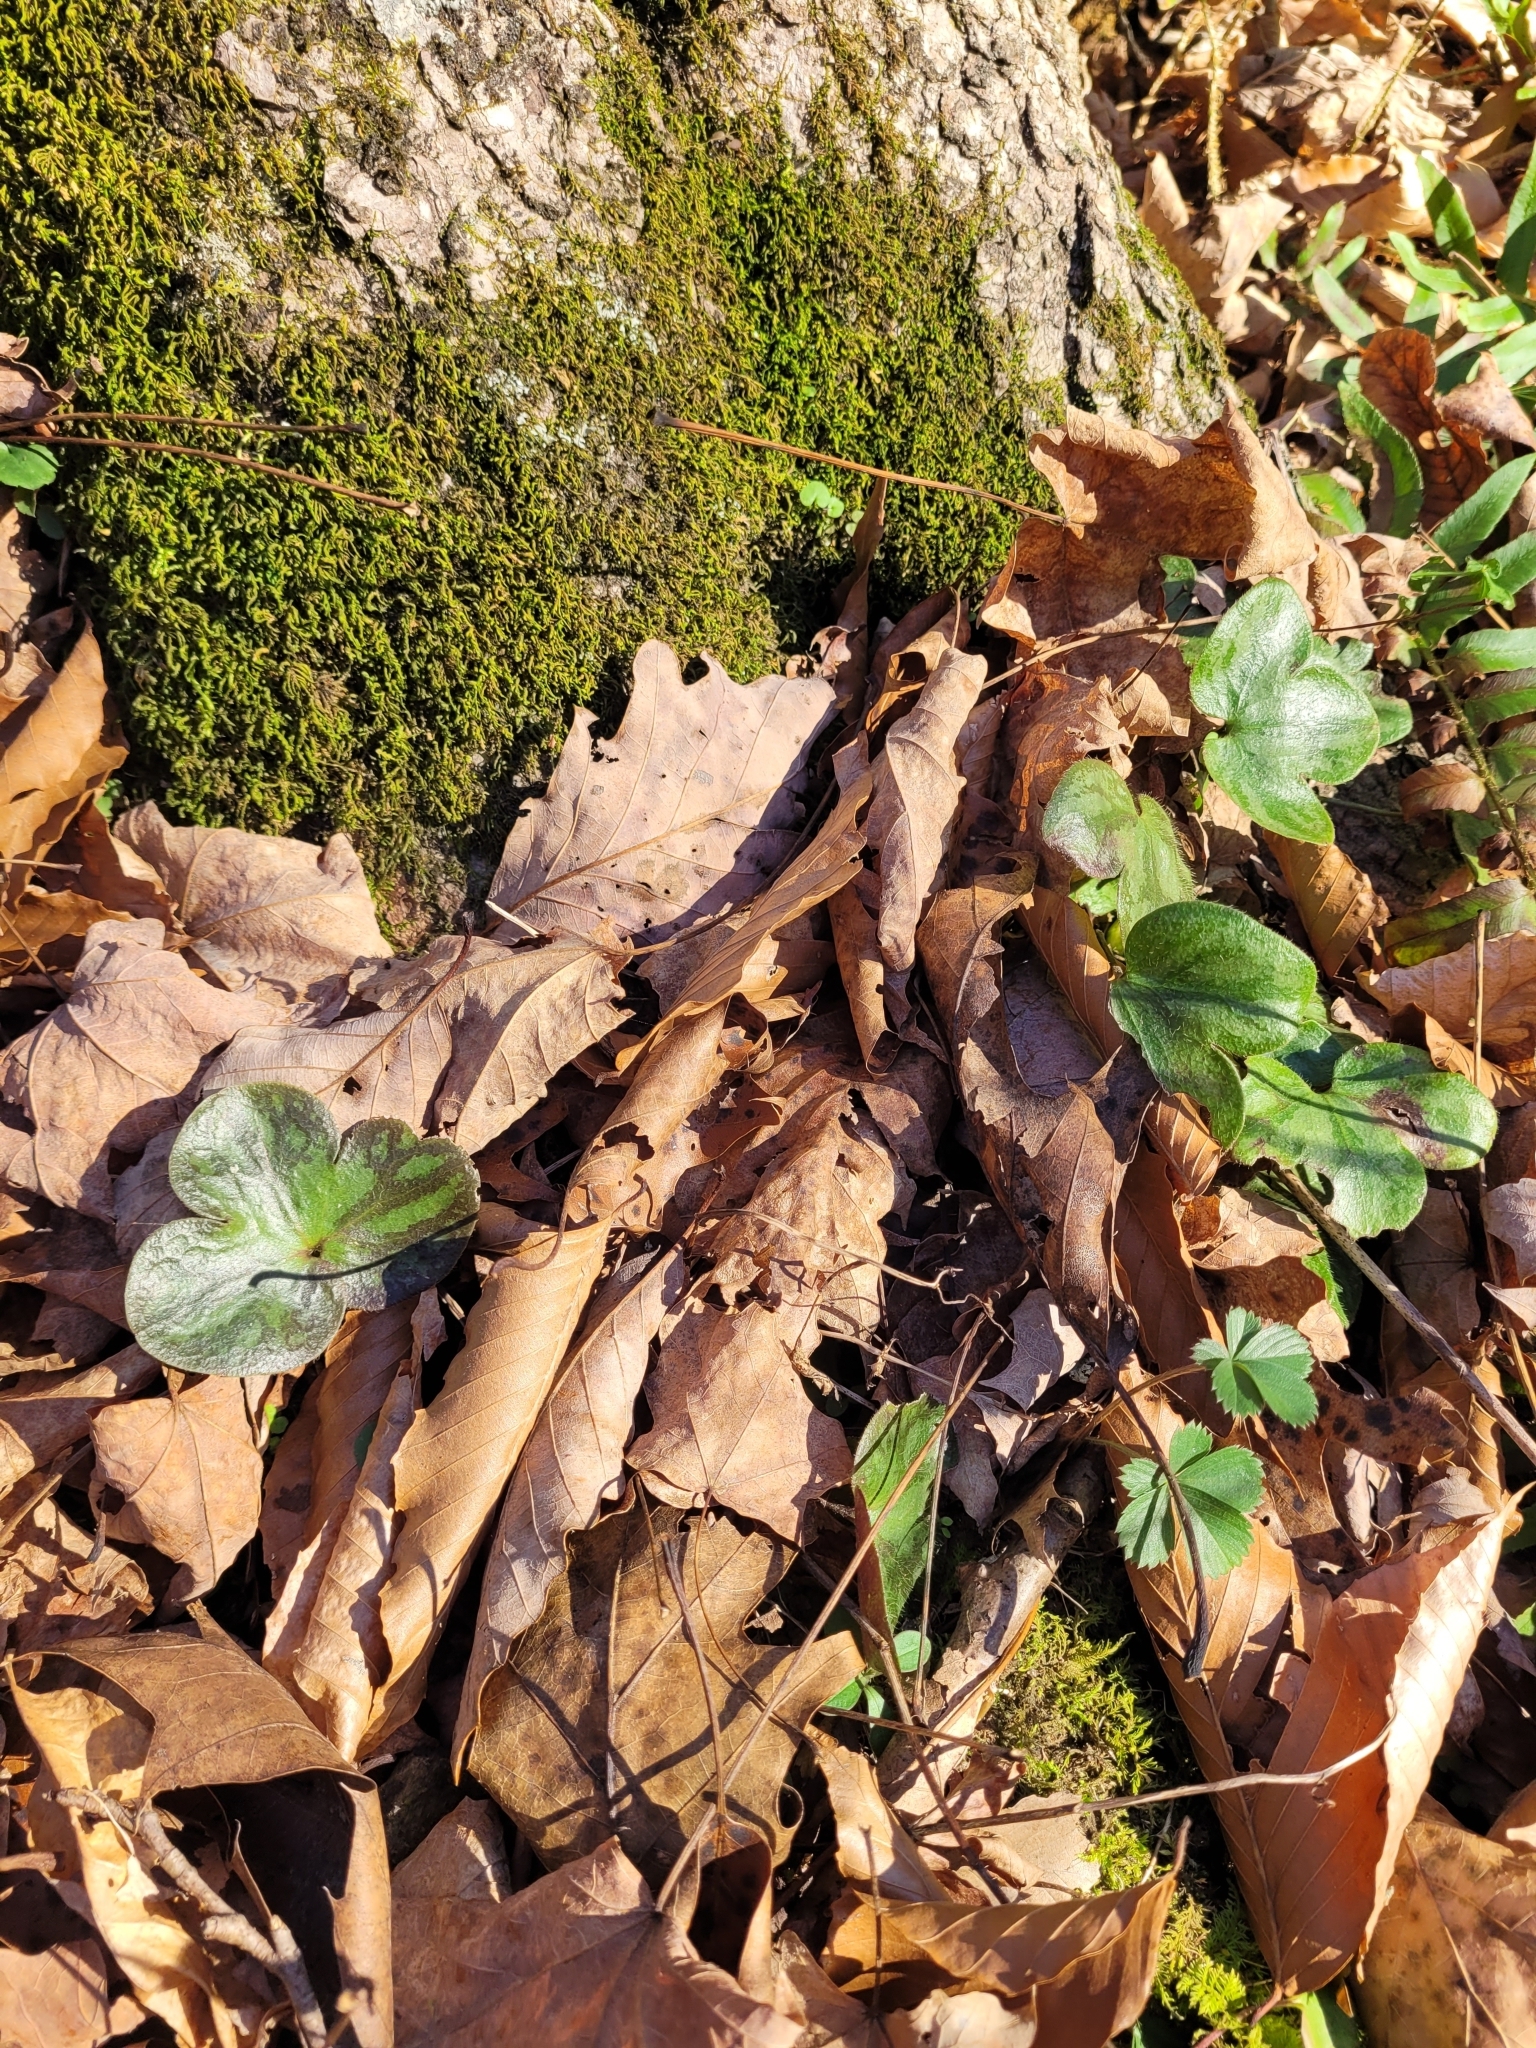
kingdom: Plantae
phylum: Tracheophyta
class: Magnoliopsida
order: Ranunculales
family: Ranunculaceae
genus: Hepatica
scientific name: Hepatica americana
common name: American hepatica
